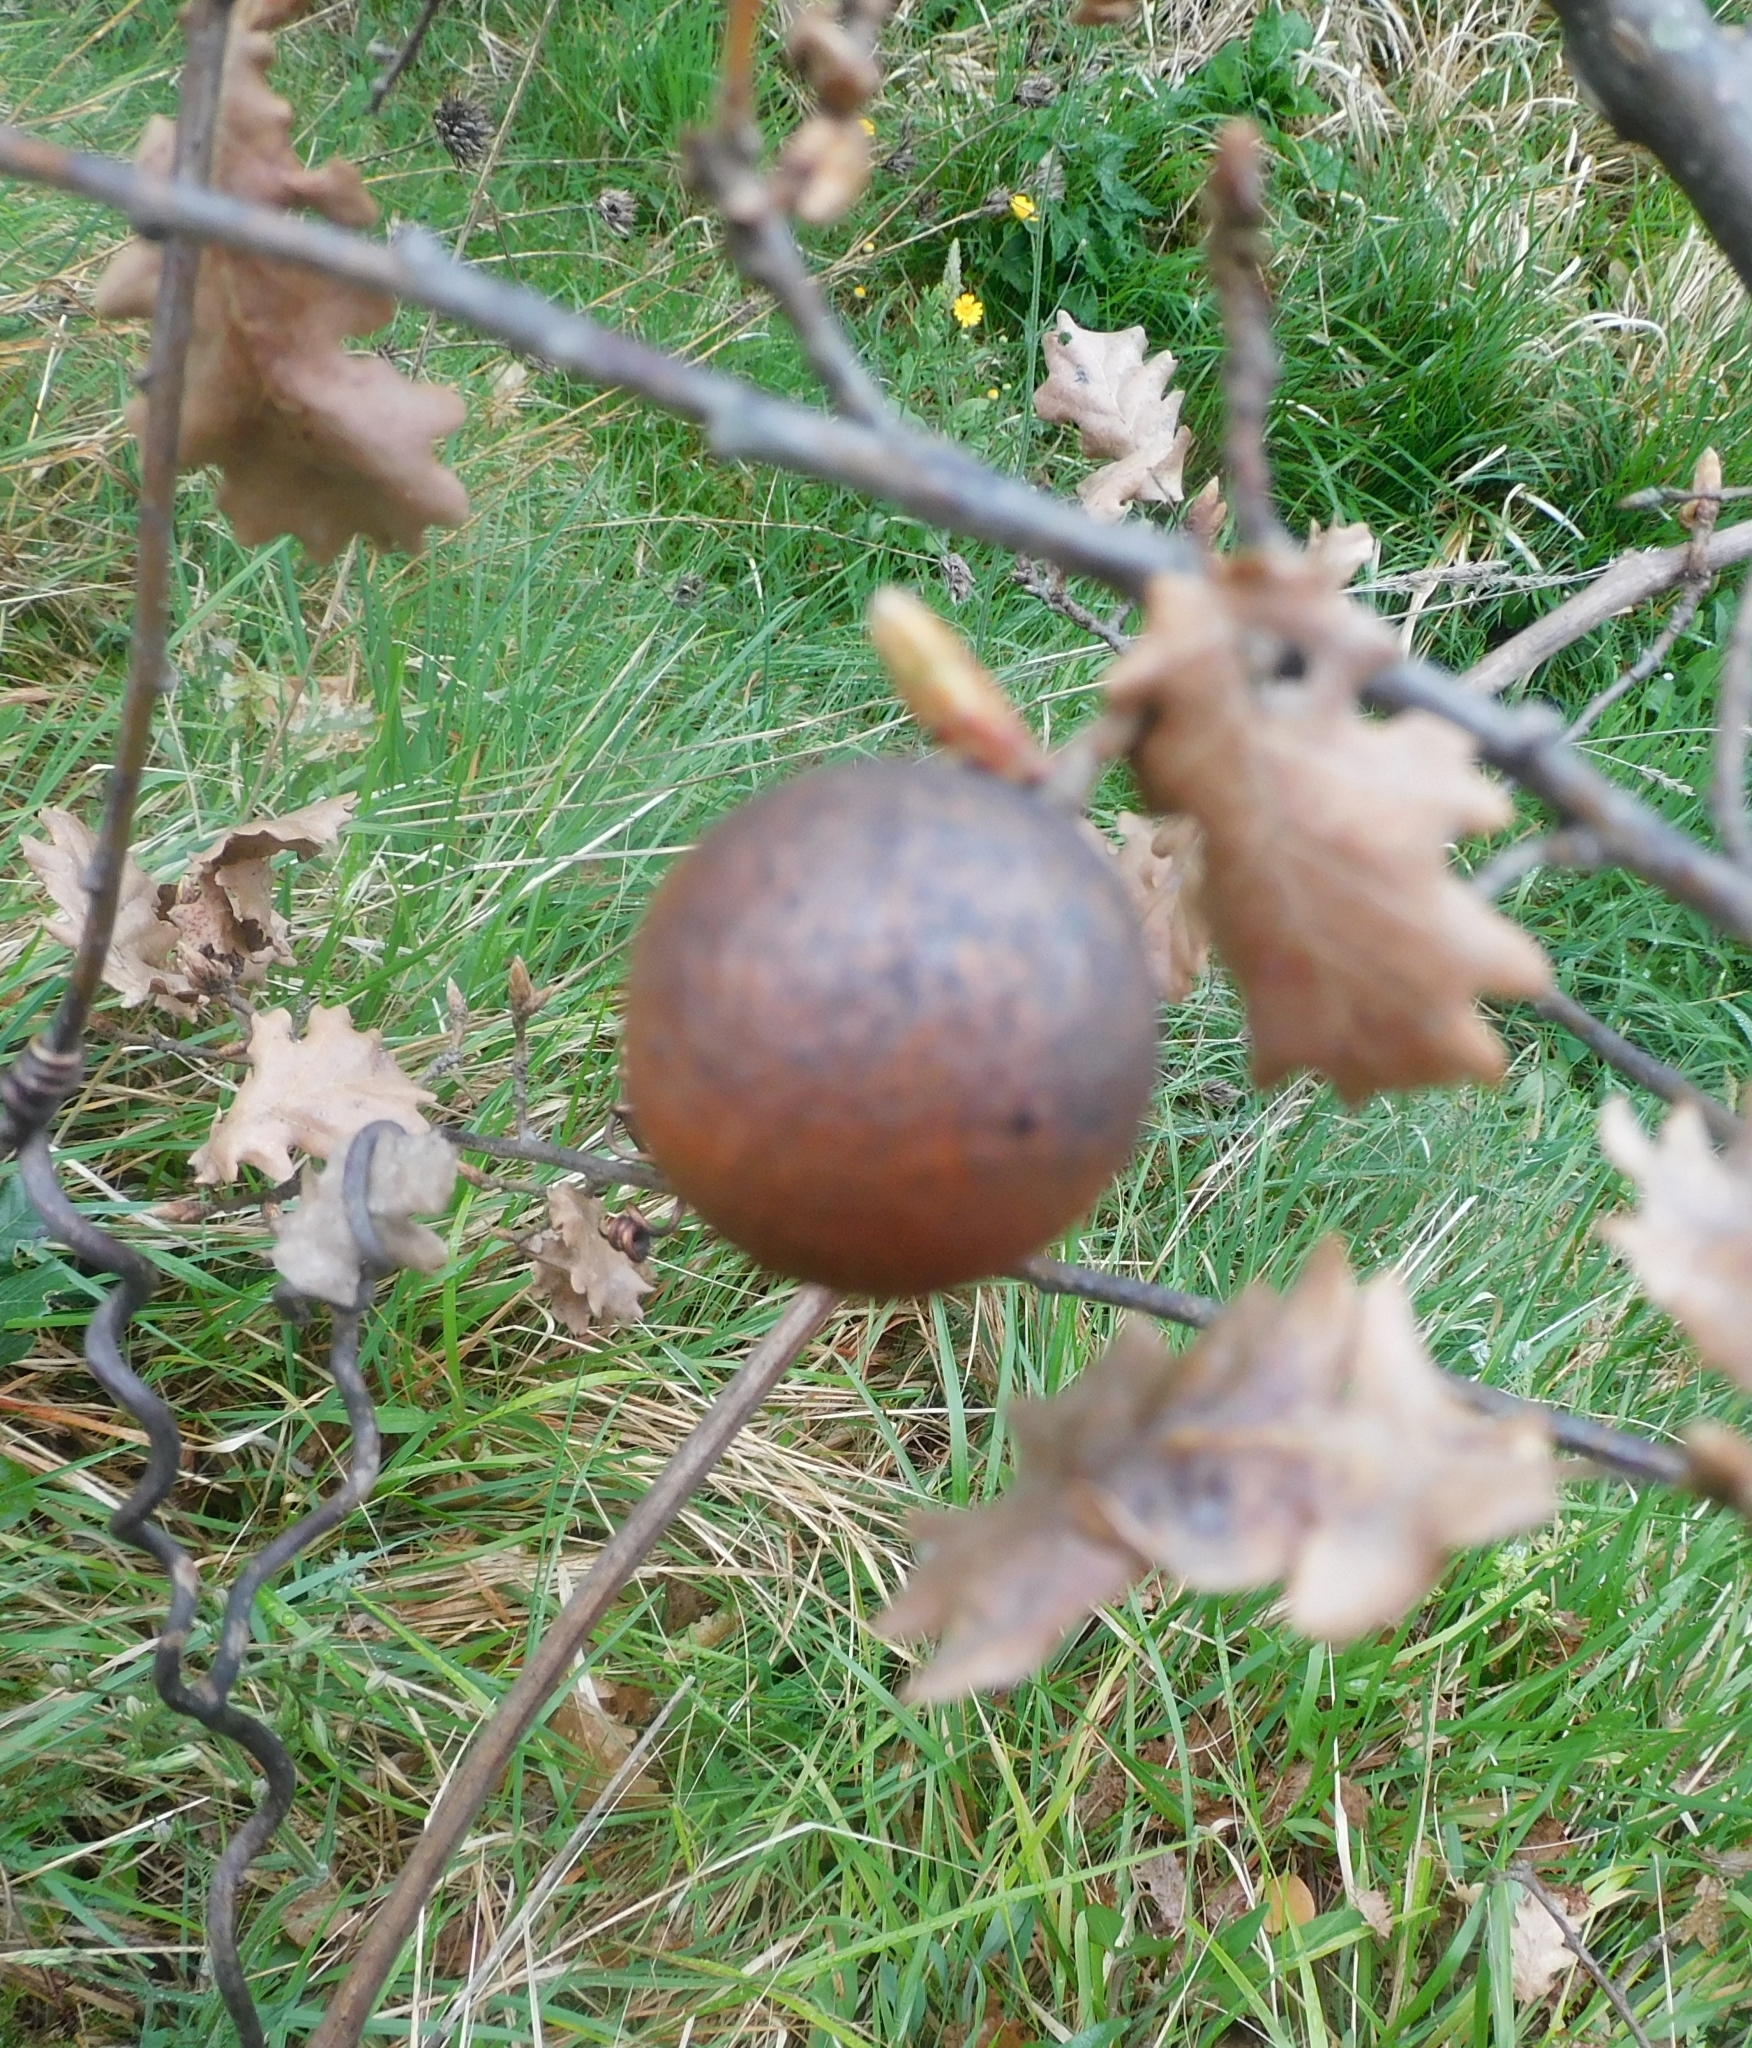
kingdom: Animalia
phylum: Arthropoda
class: Insecta
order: Hymenoptera
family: Cynipidae
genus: Andricus
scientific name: Andricus kollari
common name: Marble gall
